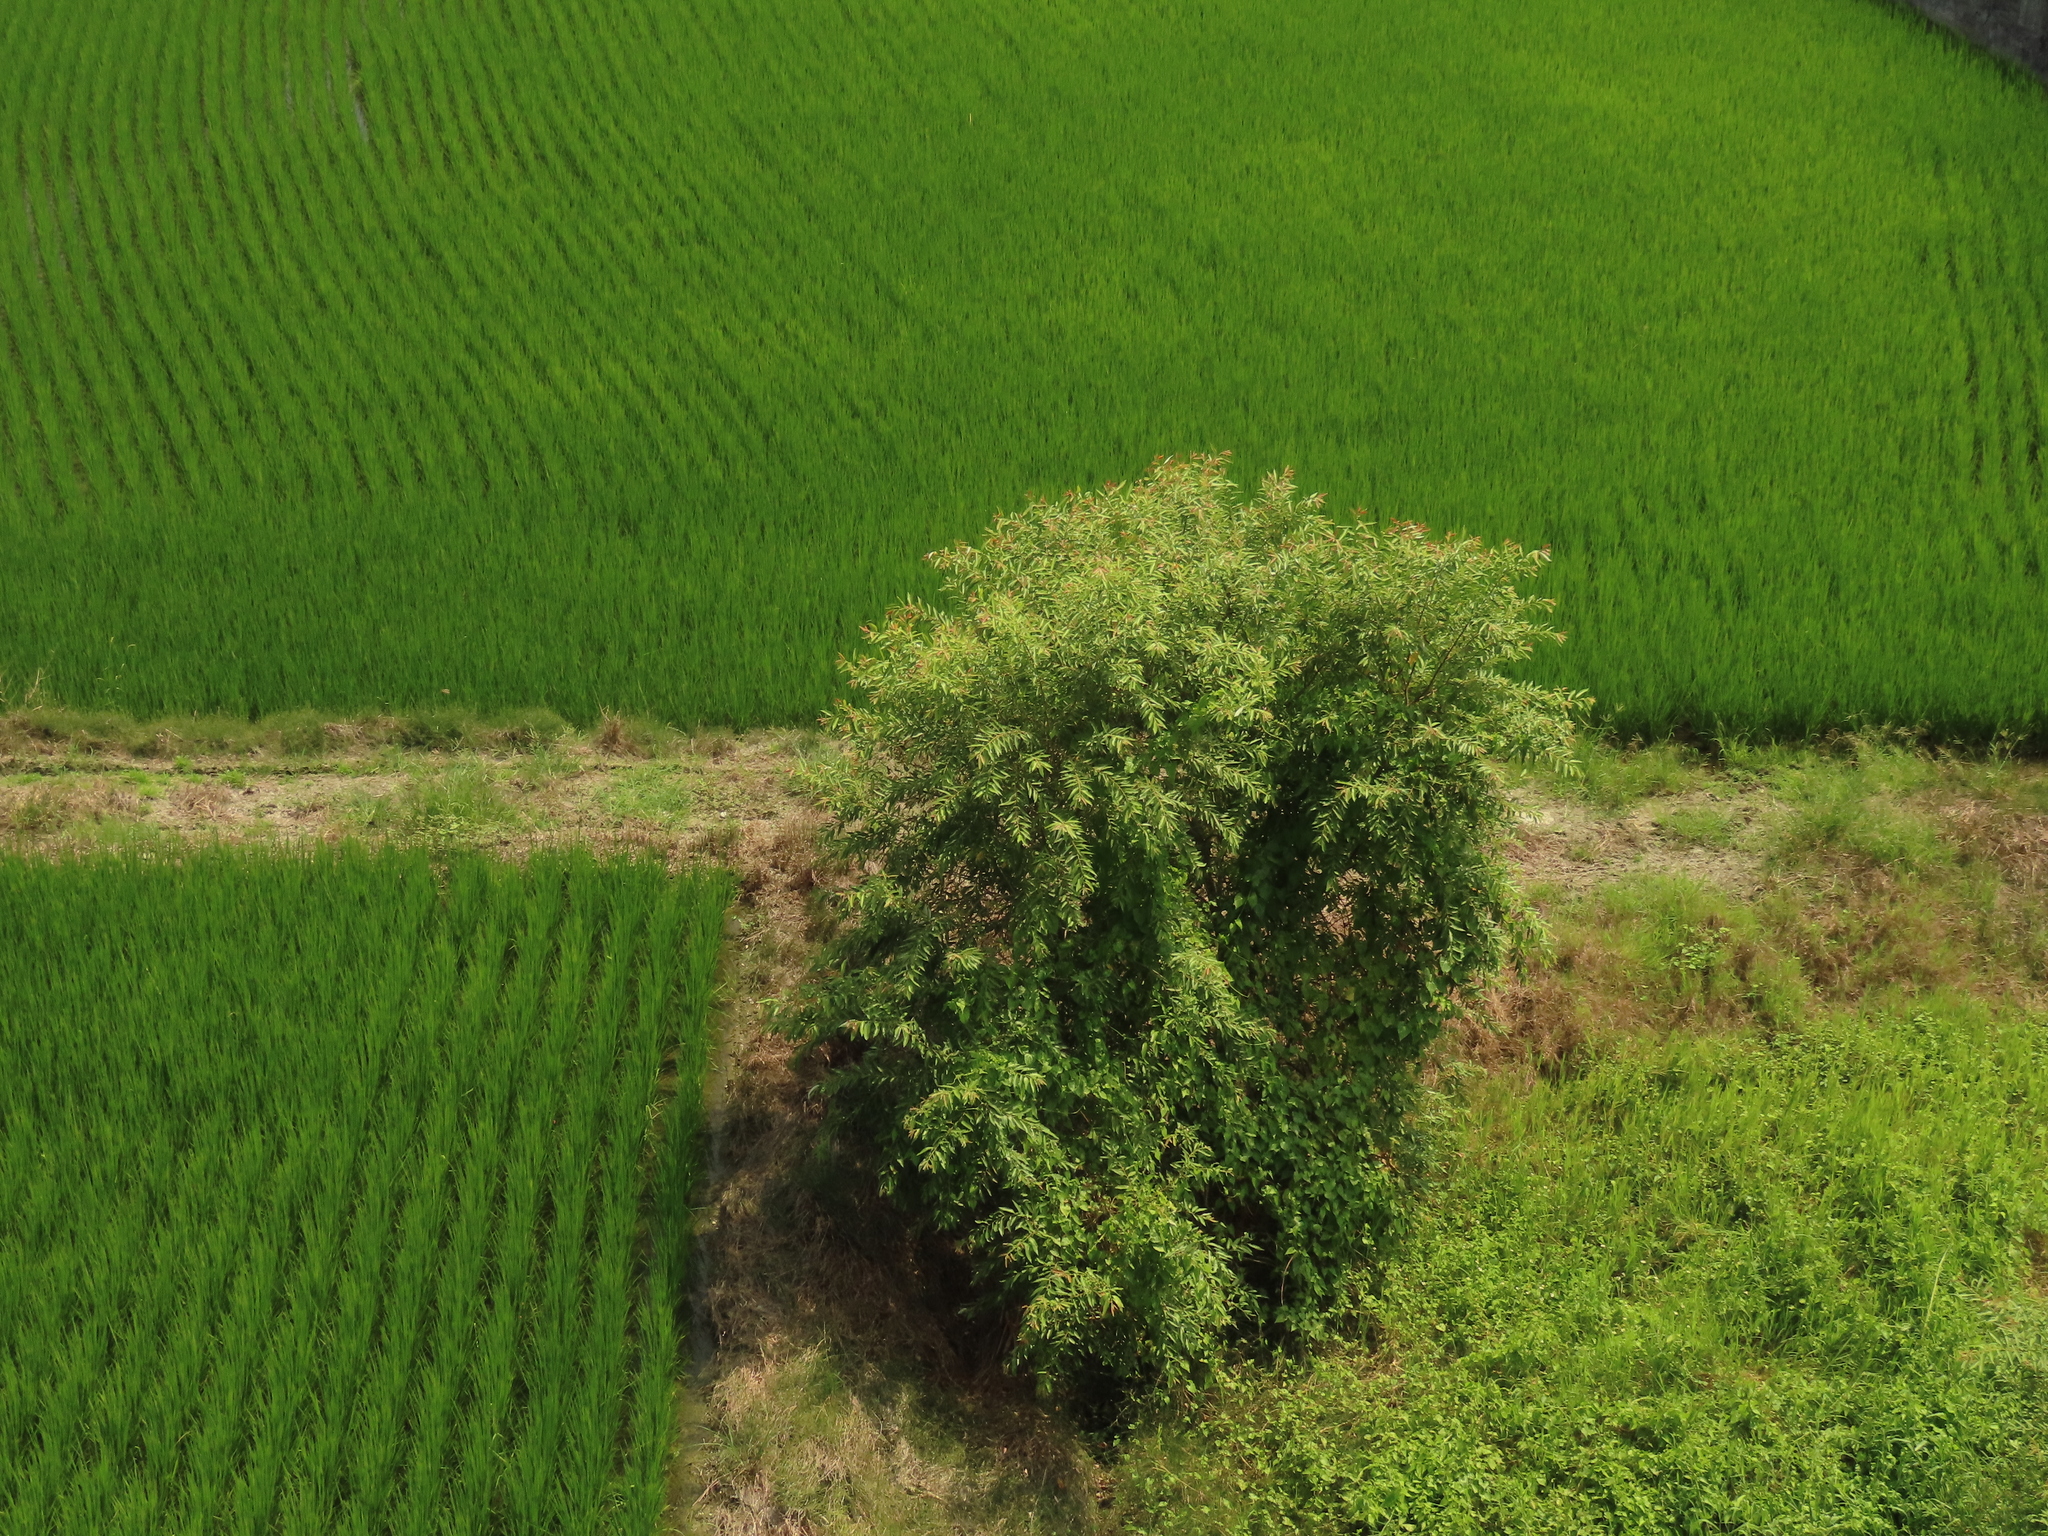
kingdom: Plantae
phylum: Tracheophyta
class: Magnoliopsida
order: Malpighiales
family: Salicaceae
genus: Salix
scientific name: Salix mesnyi
